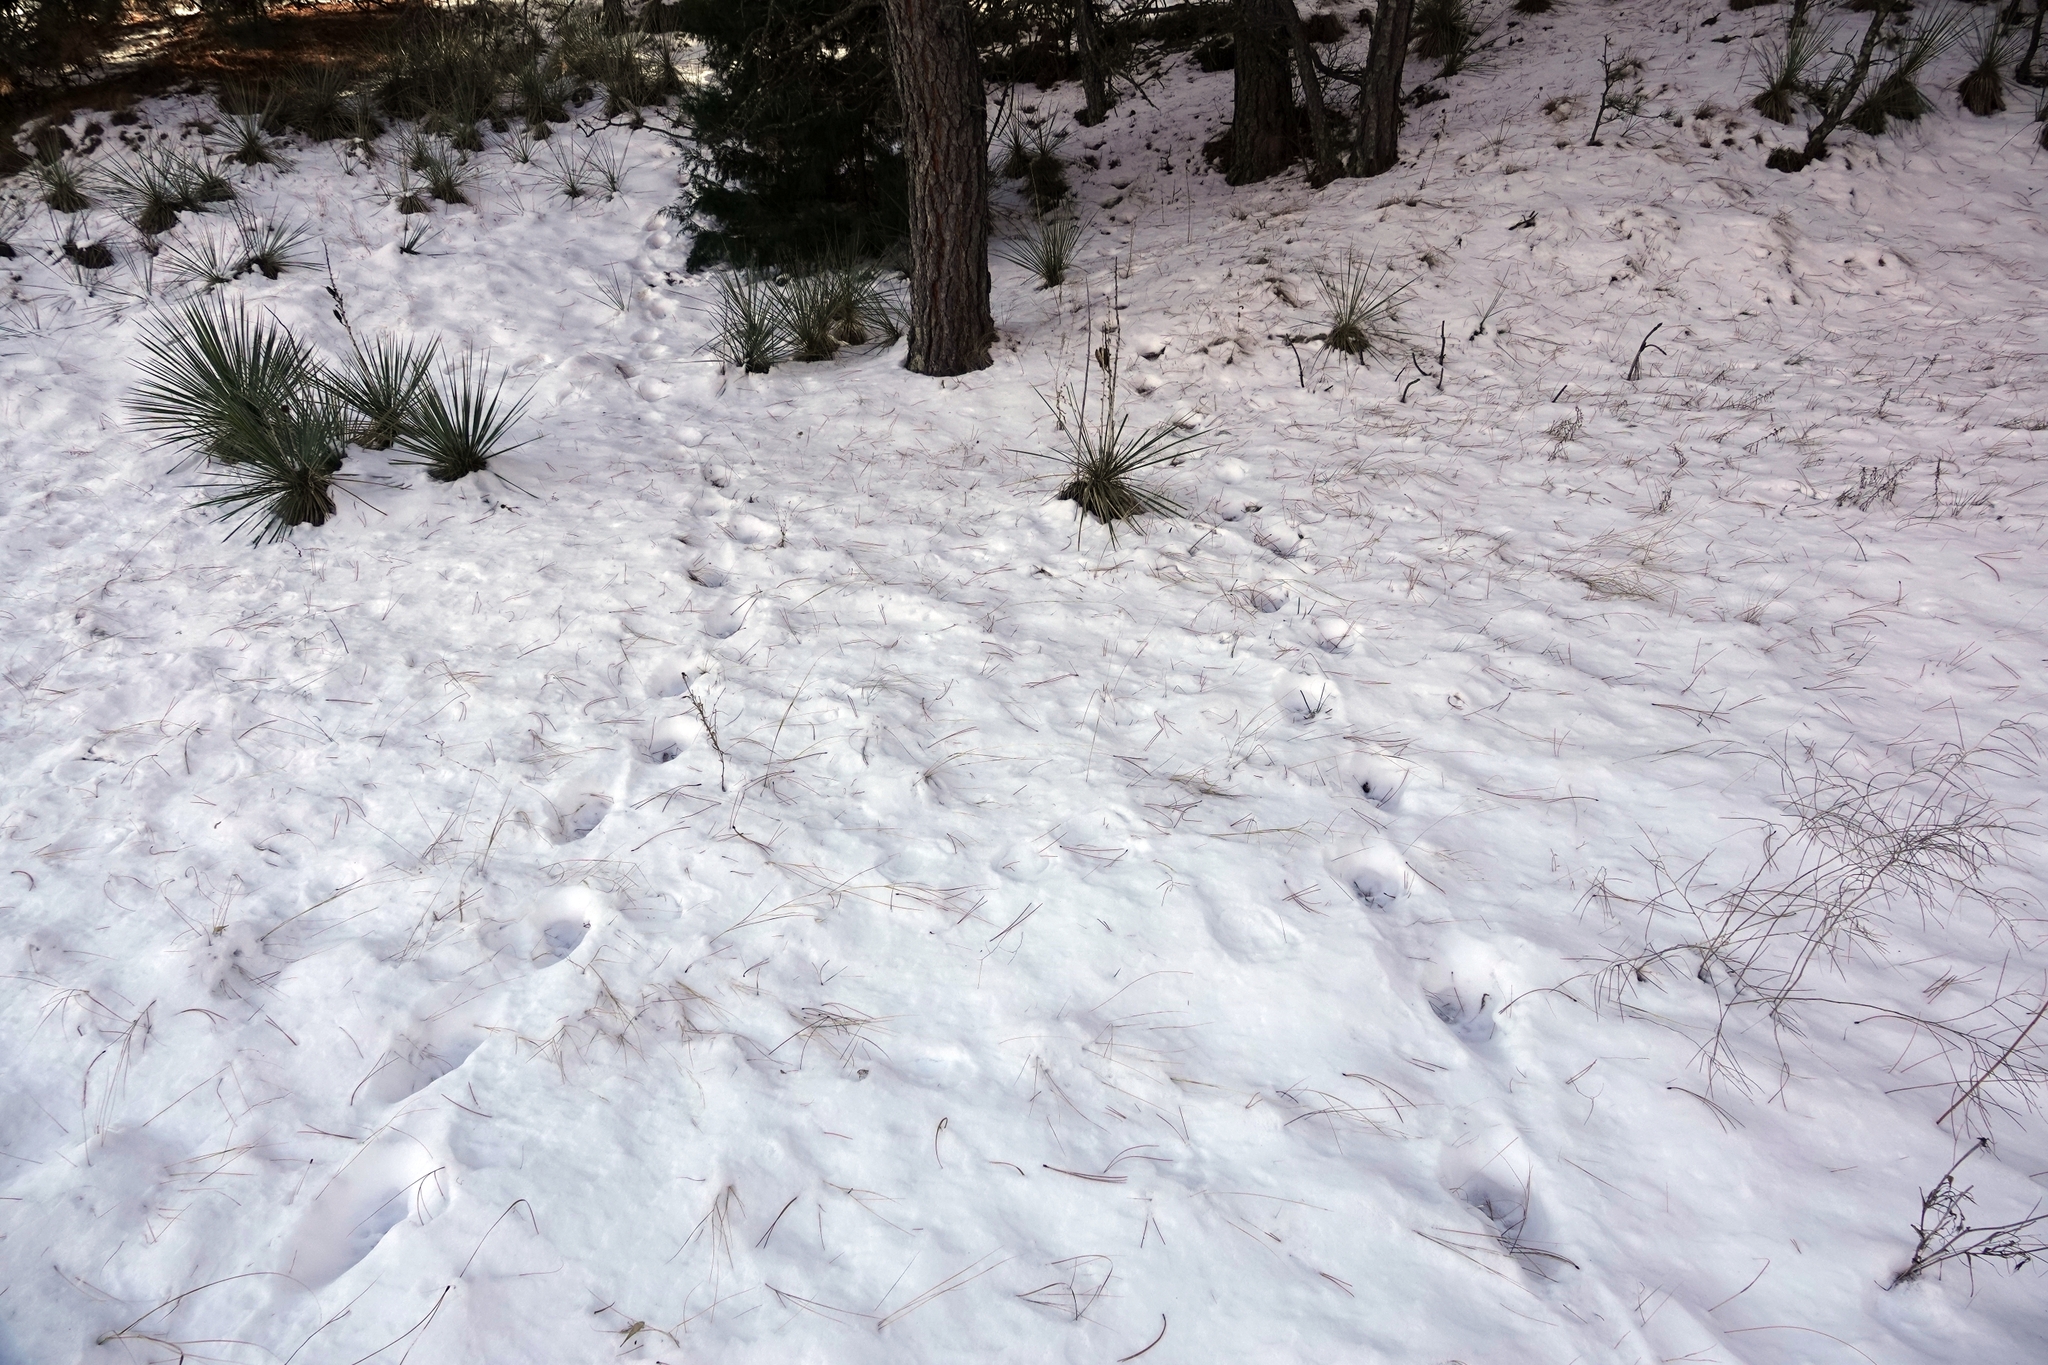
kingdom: Animalia
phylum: Chordata
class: Mammalia
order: Carnivora
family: Felidae
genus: Puma
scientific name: Puma concolor
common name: Puma
